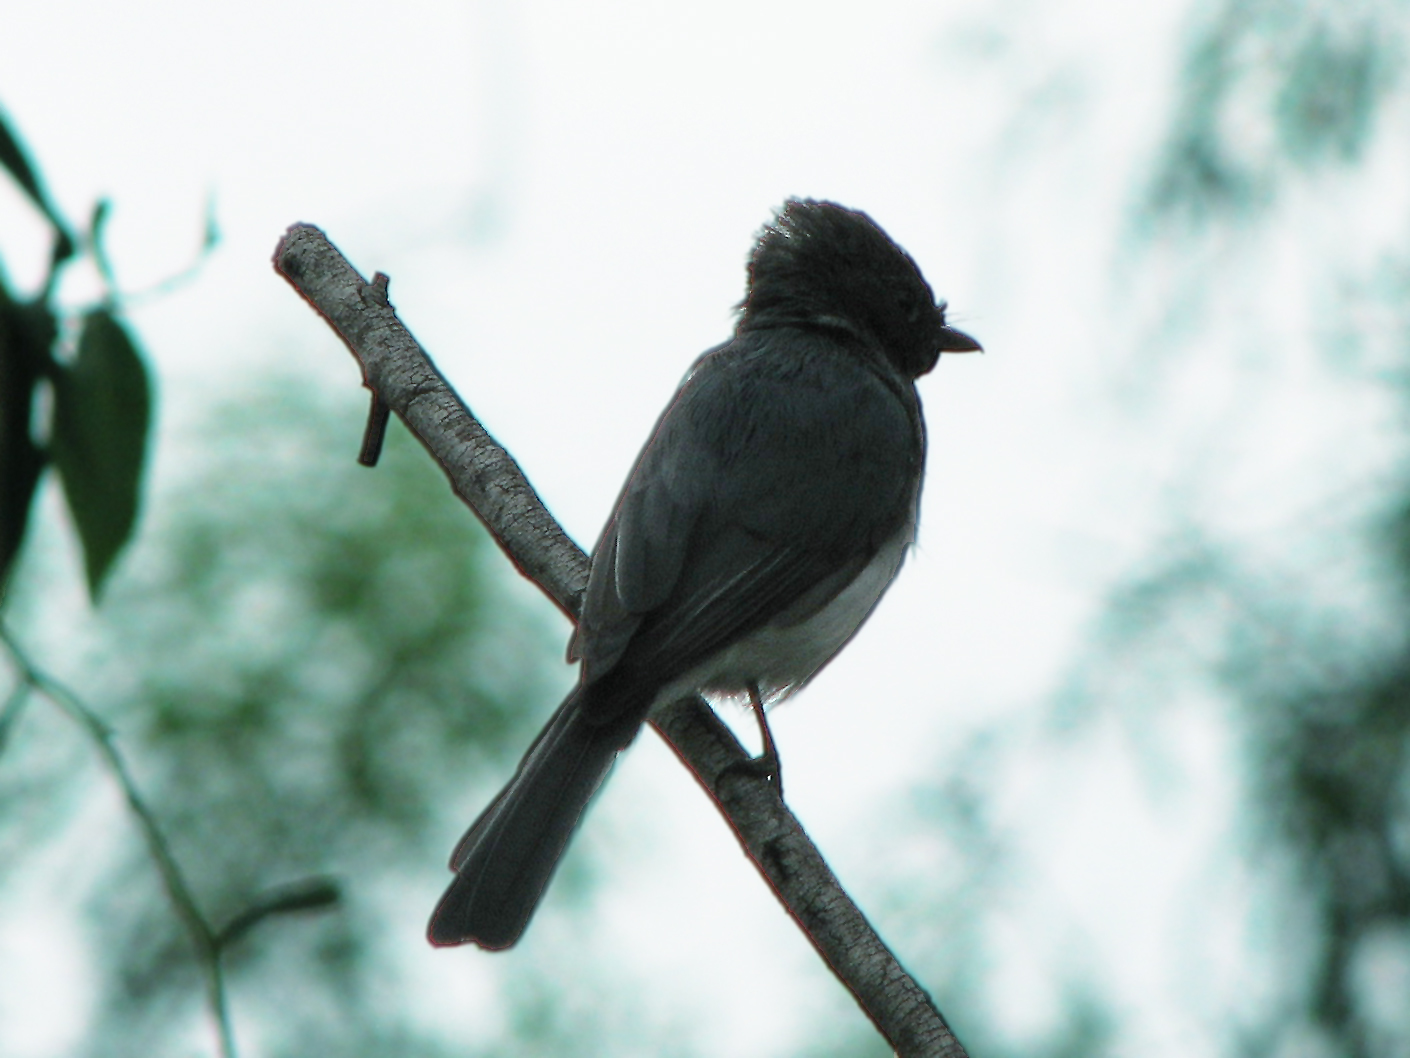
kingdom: Animalia
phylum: Chordata
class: Aves
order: Passeriformes
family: Monarchidae
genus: Myiagra
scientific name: Myiagra rubecula
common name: Leaden flycatcher
